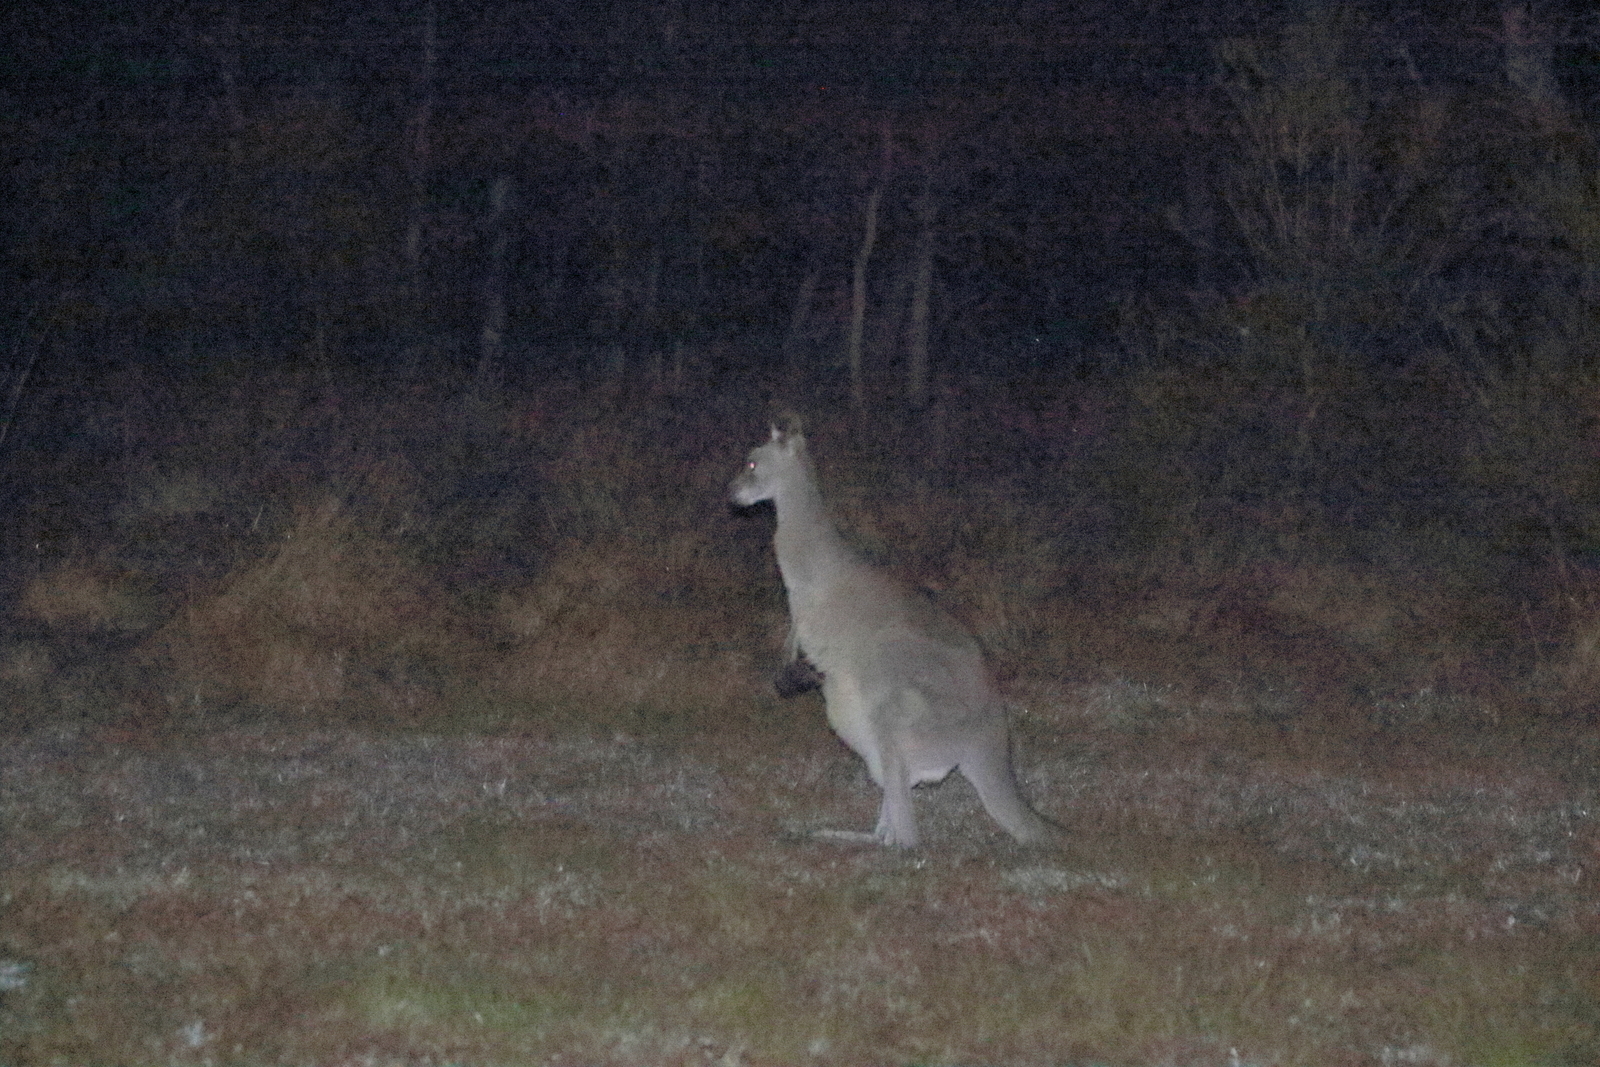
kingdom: Animalia
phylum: Chordata
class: Mammalia
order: Diprotodontia
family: Macropodidae
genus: Macropus
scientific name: Macropus giganteus
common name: Eastern grey kangaroo
